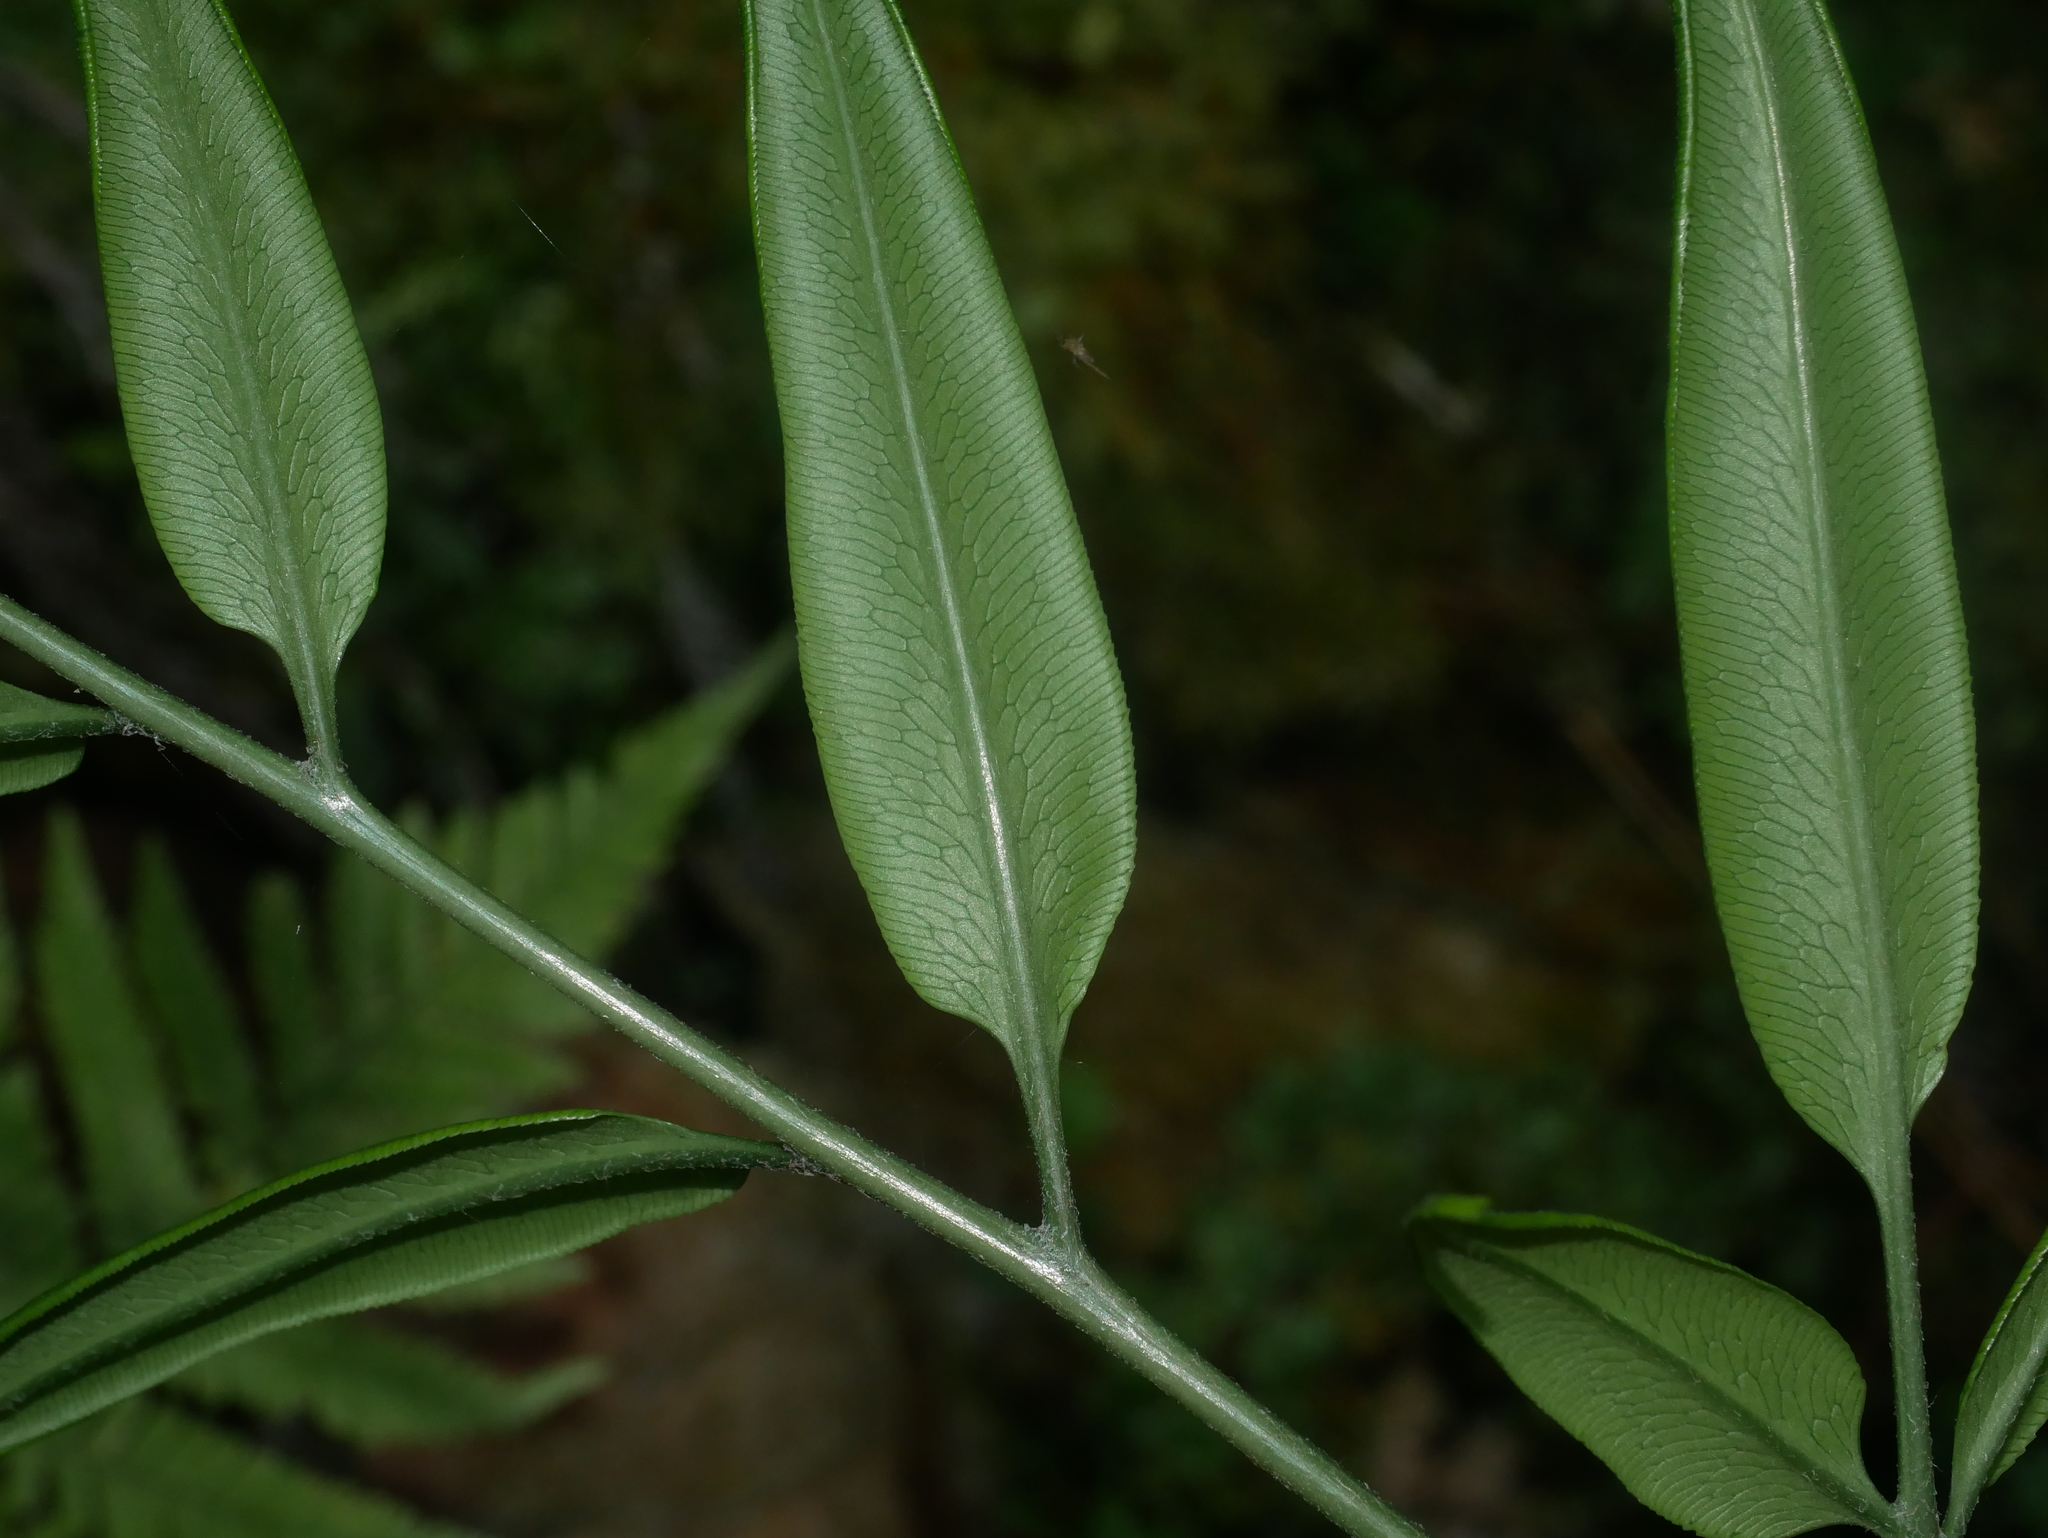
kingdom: Plantae
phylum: Tracheophyta
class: Polypodiopsida
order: Polypodiales
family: Pteridaceae
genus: Coniogramme
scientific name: Coniogramme japonica
